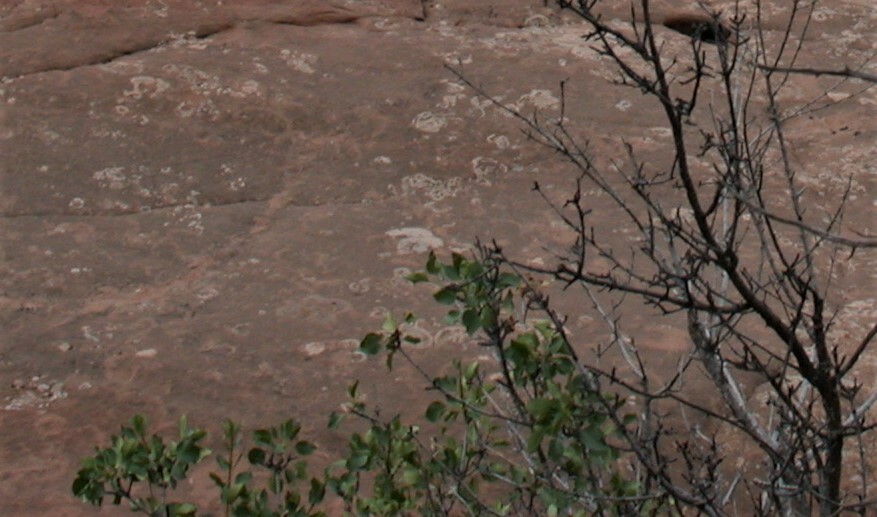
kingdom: Plantae
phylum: Tracheophyta
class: Magnoliopsida
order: Lamiales
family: Oleaceae
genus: Fraxinus
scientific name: Fraxinus anomala
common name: Utah ash
